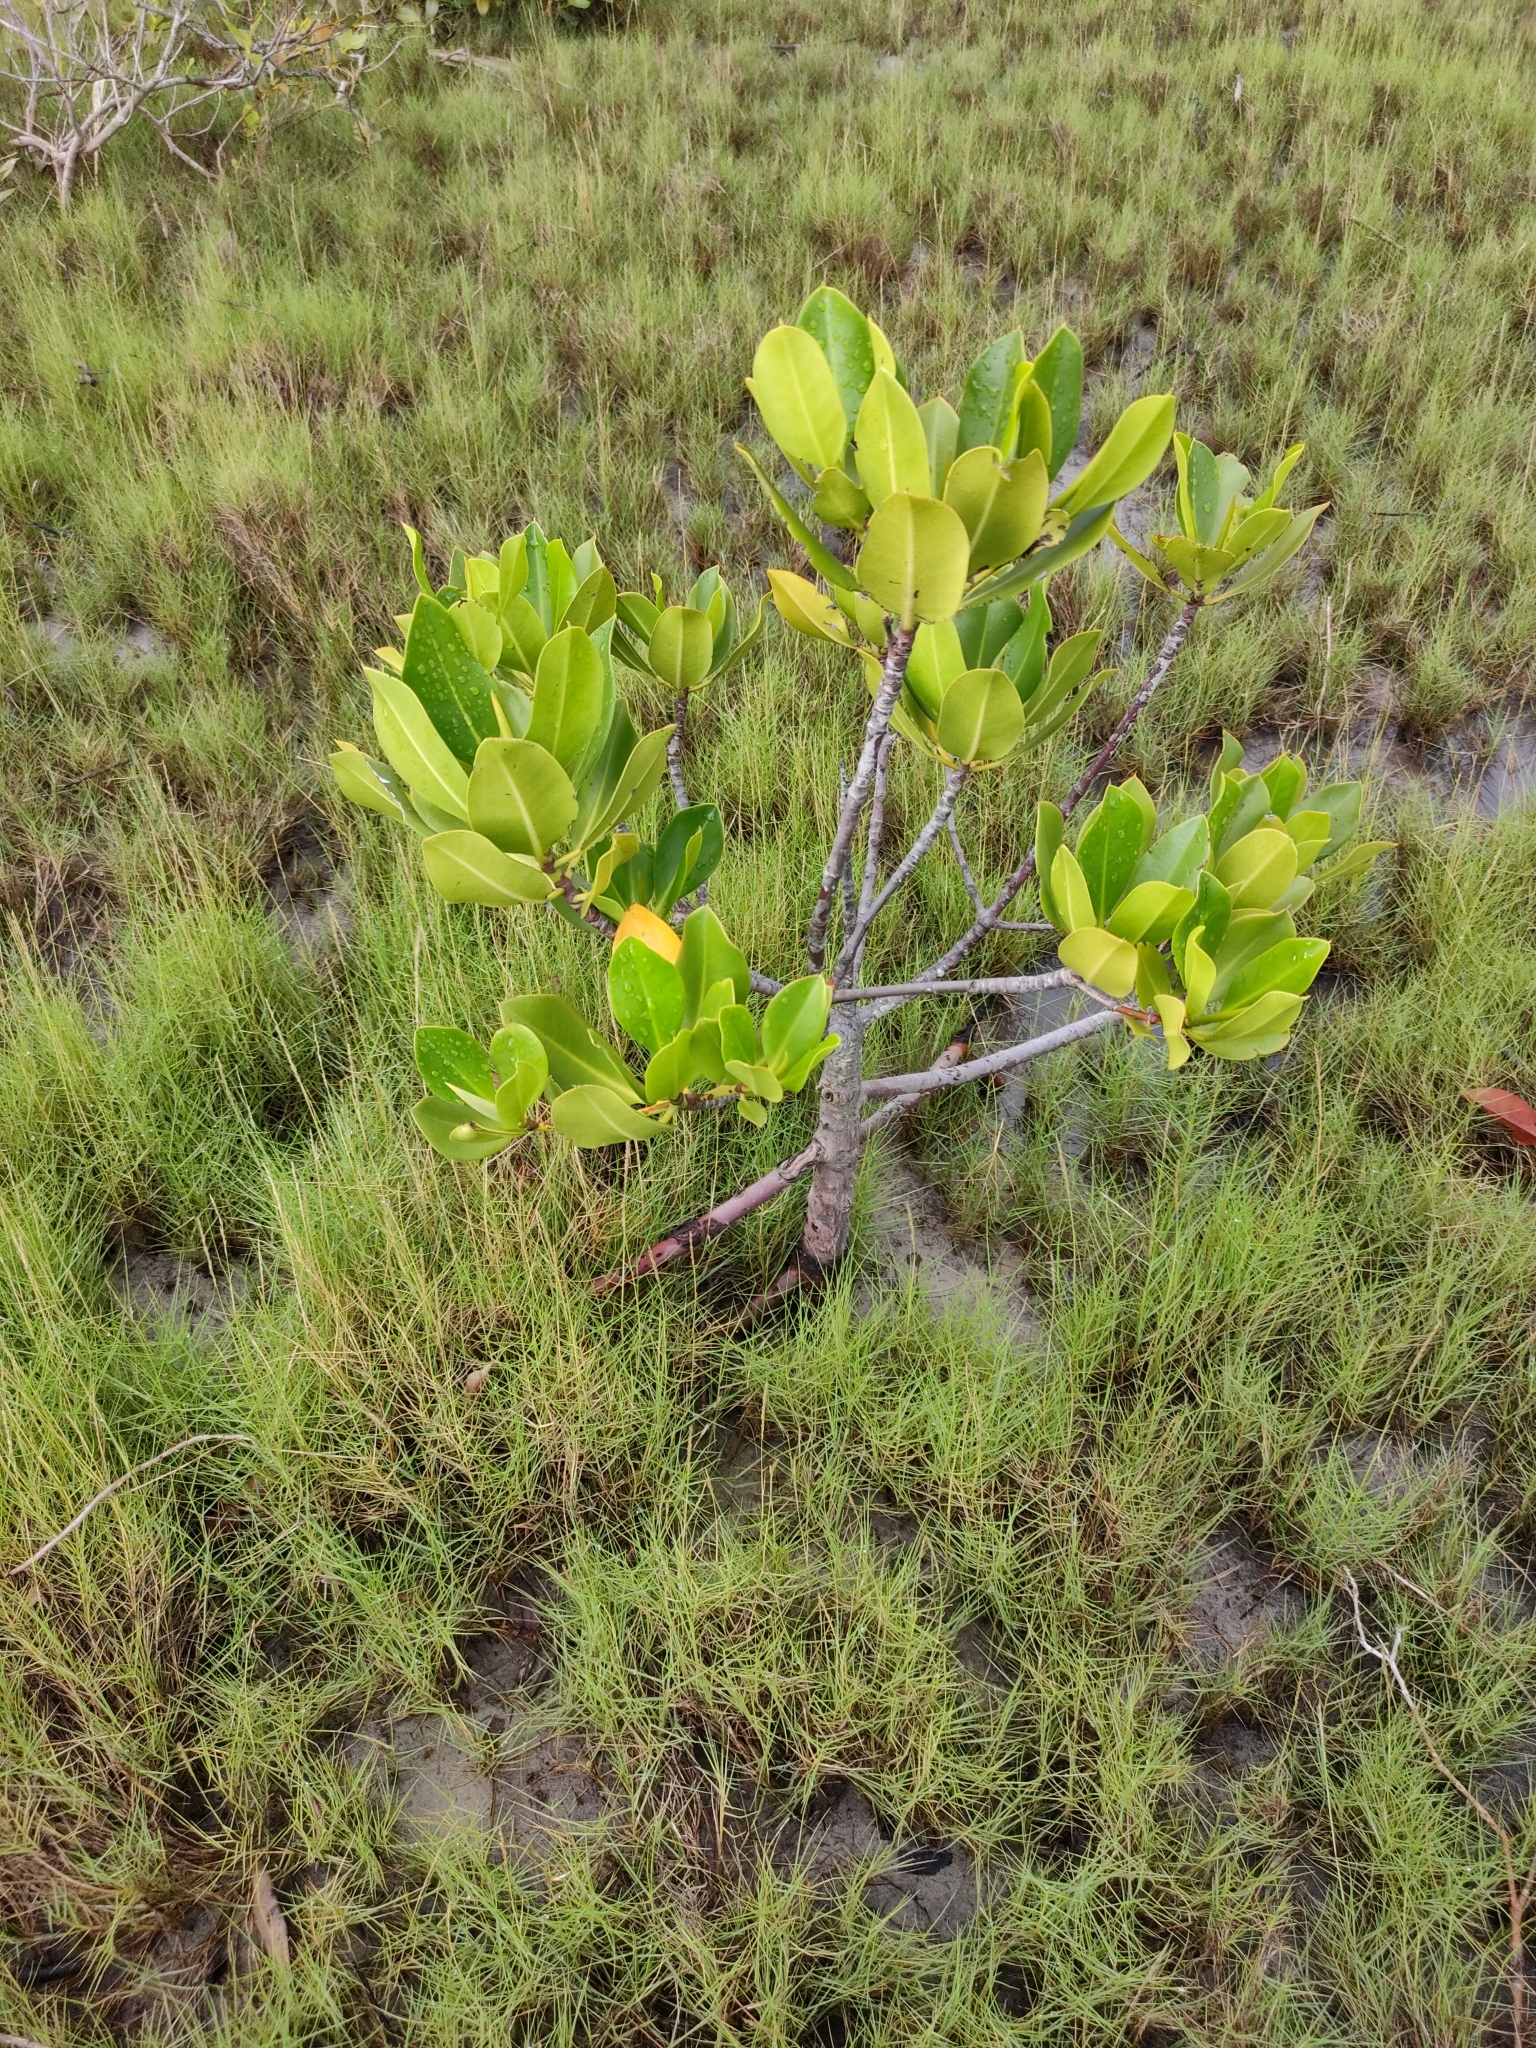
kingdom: Plantae
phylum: Tracheophyta
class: Magnoliopsida
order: Malpighiales
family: Rhizophoraceae
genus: Rhizophora
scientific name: Rhizophora stylosa
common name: Red mangrove
